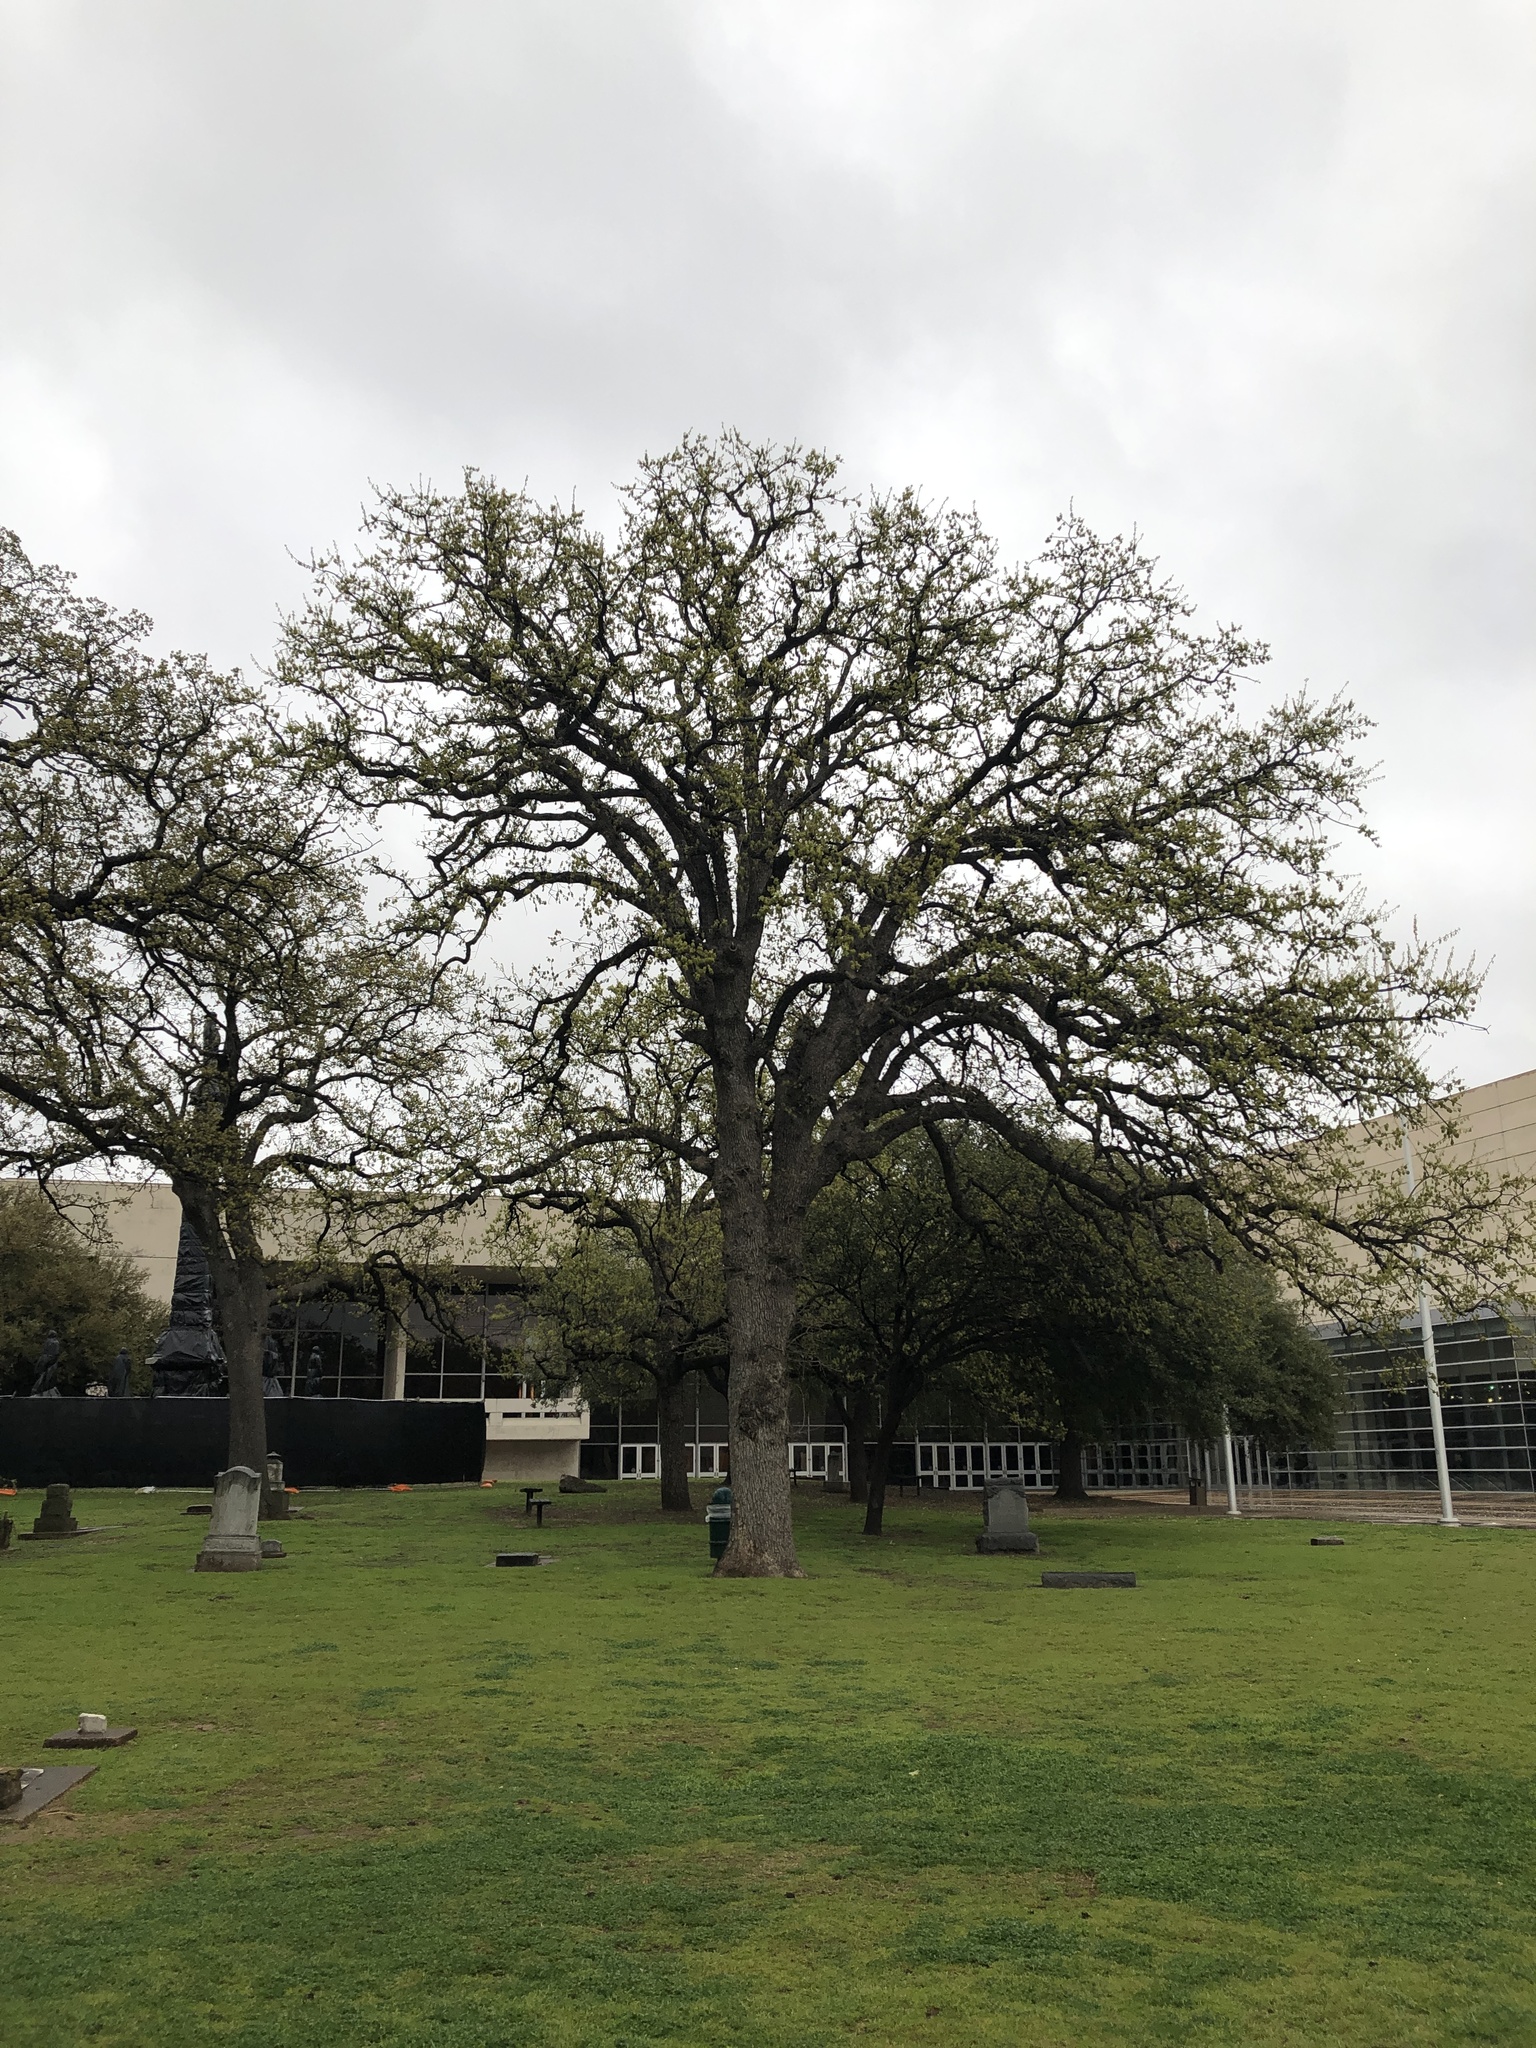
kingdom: Plantae
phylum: Tracheophyta
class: Magnoliopsida
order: Fagales
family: Fagaceae
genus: Quercus
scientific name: Quercus stellata
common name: Post oak
